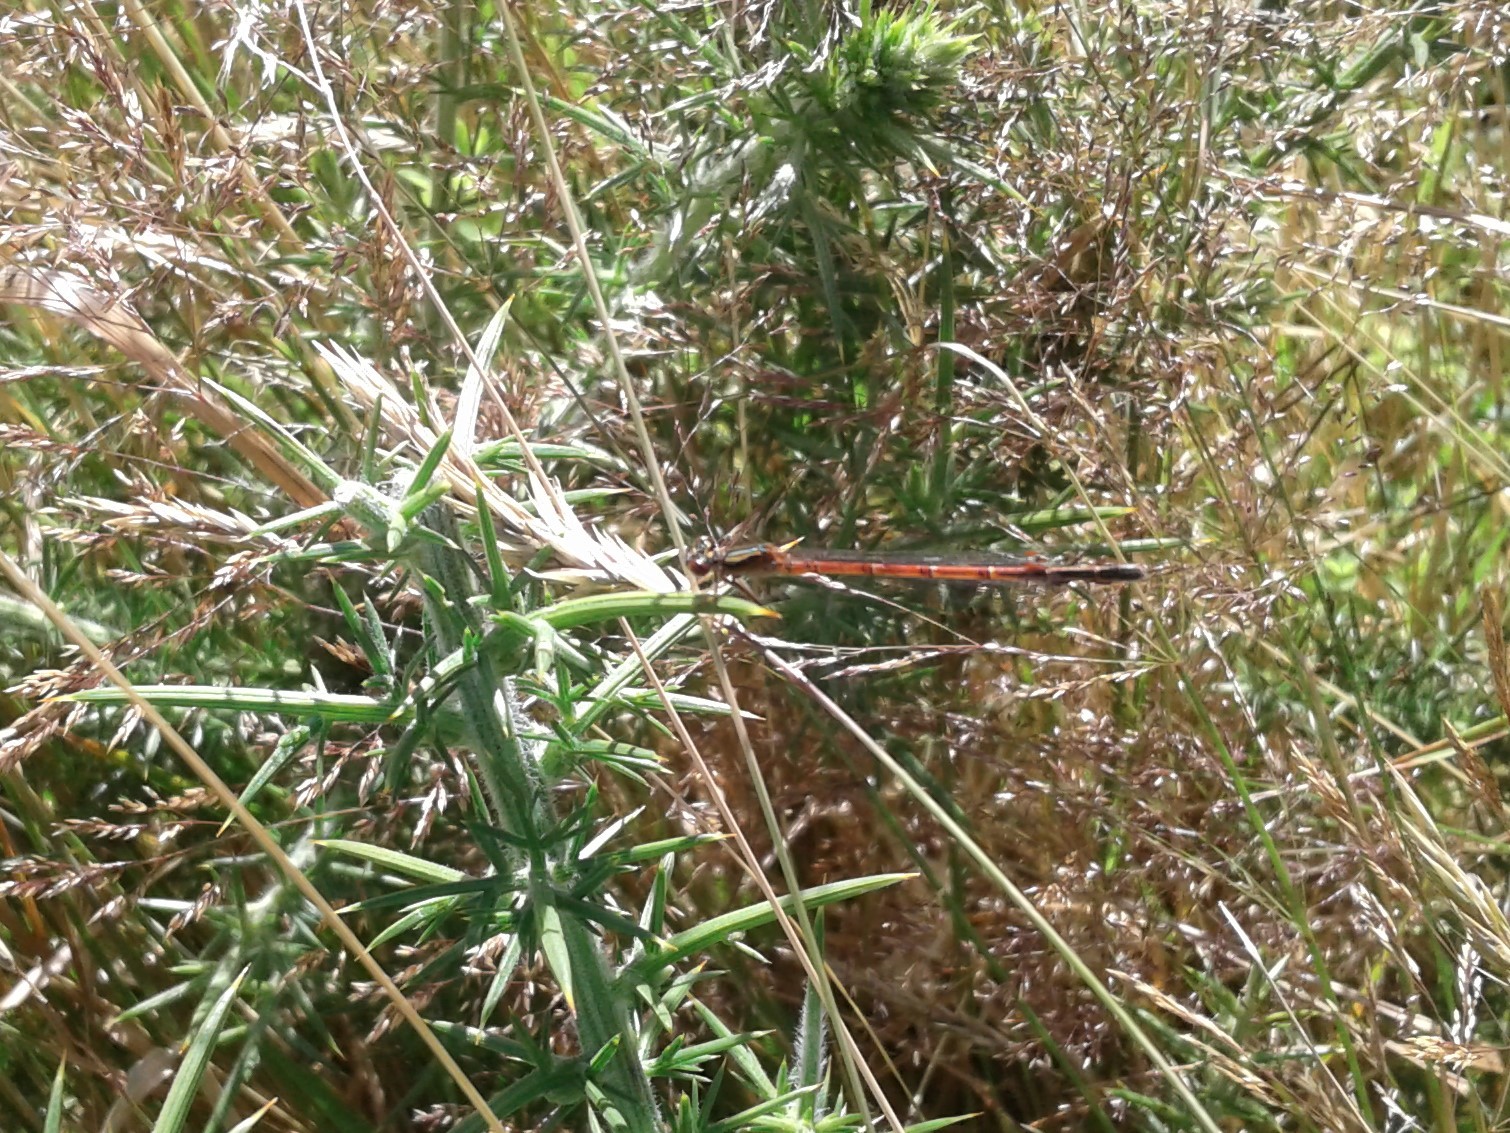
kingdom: Animalia
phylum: Arthropoda
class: Insecta
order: Odonata
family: Coenagrionidae
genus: Xanthocnemis
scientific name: Xanthocnemis zealandica
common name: Common redcoat damselfly
